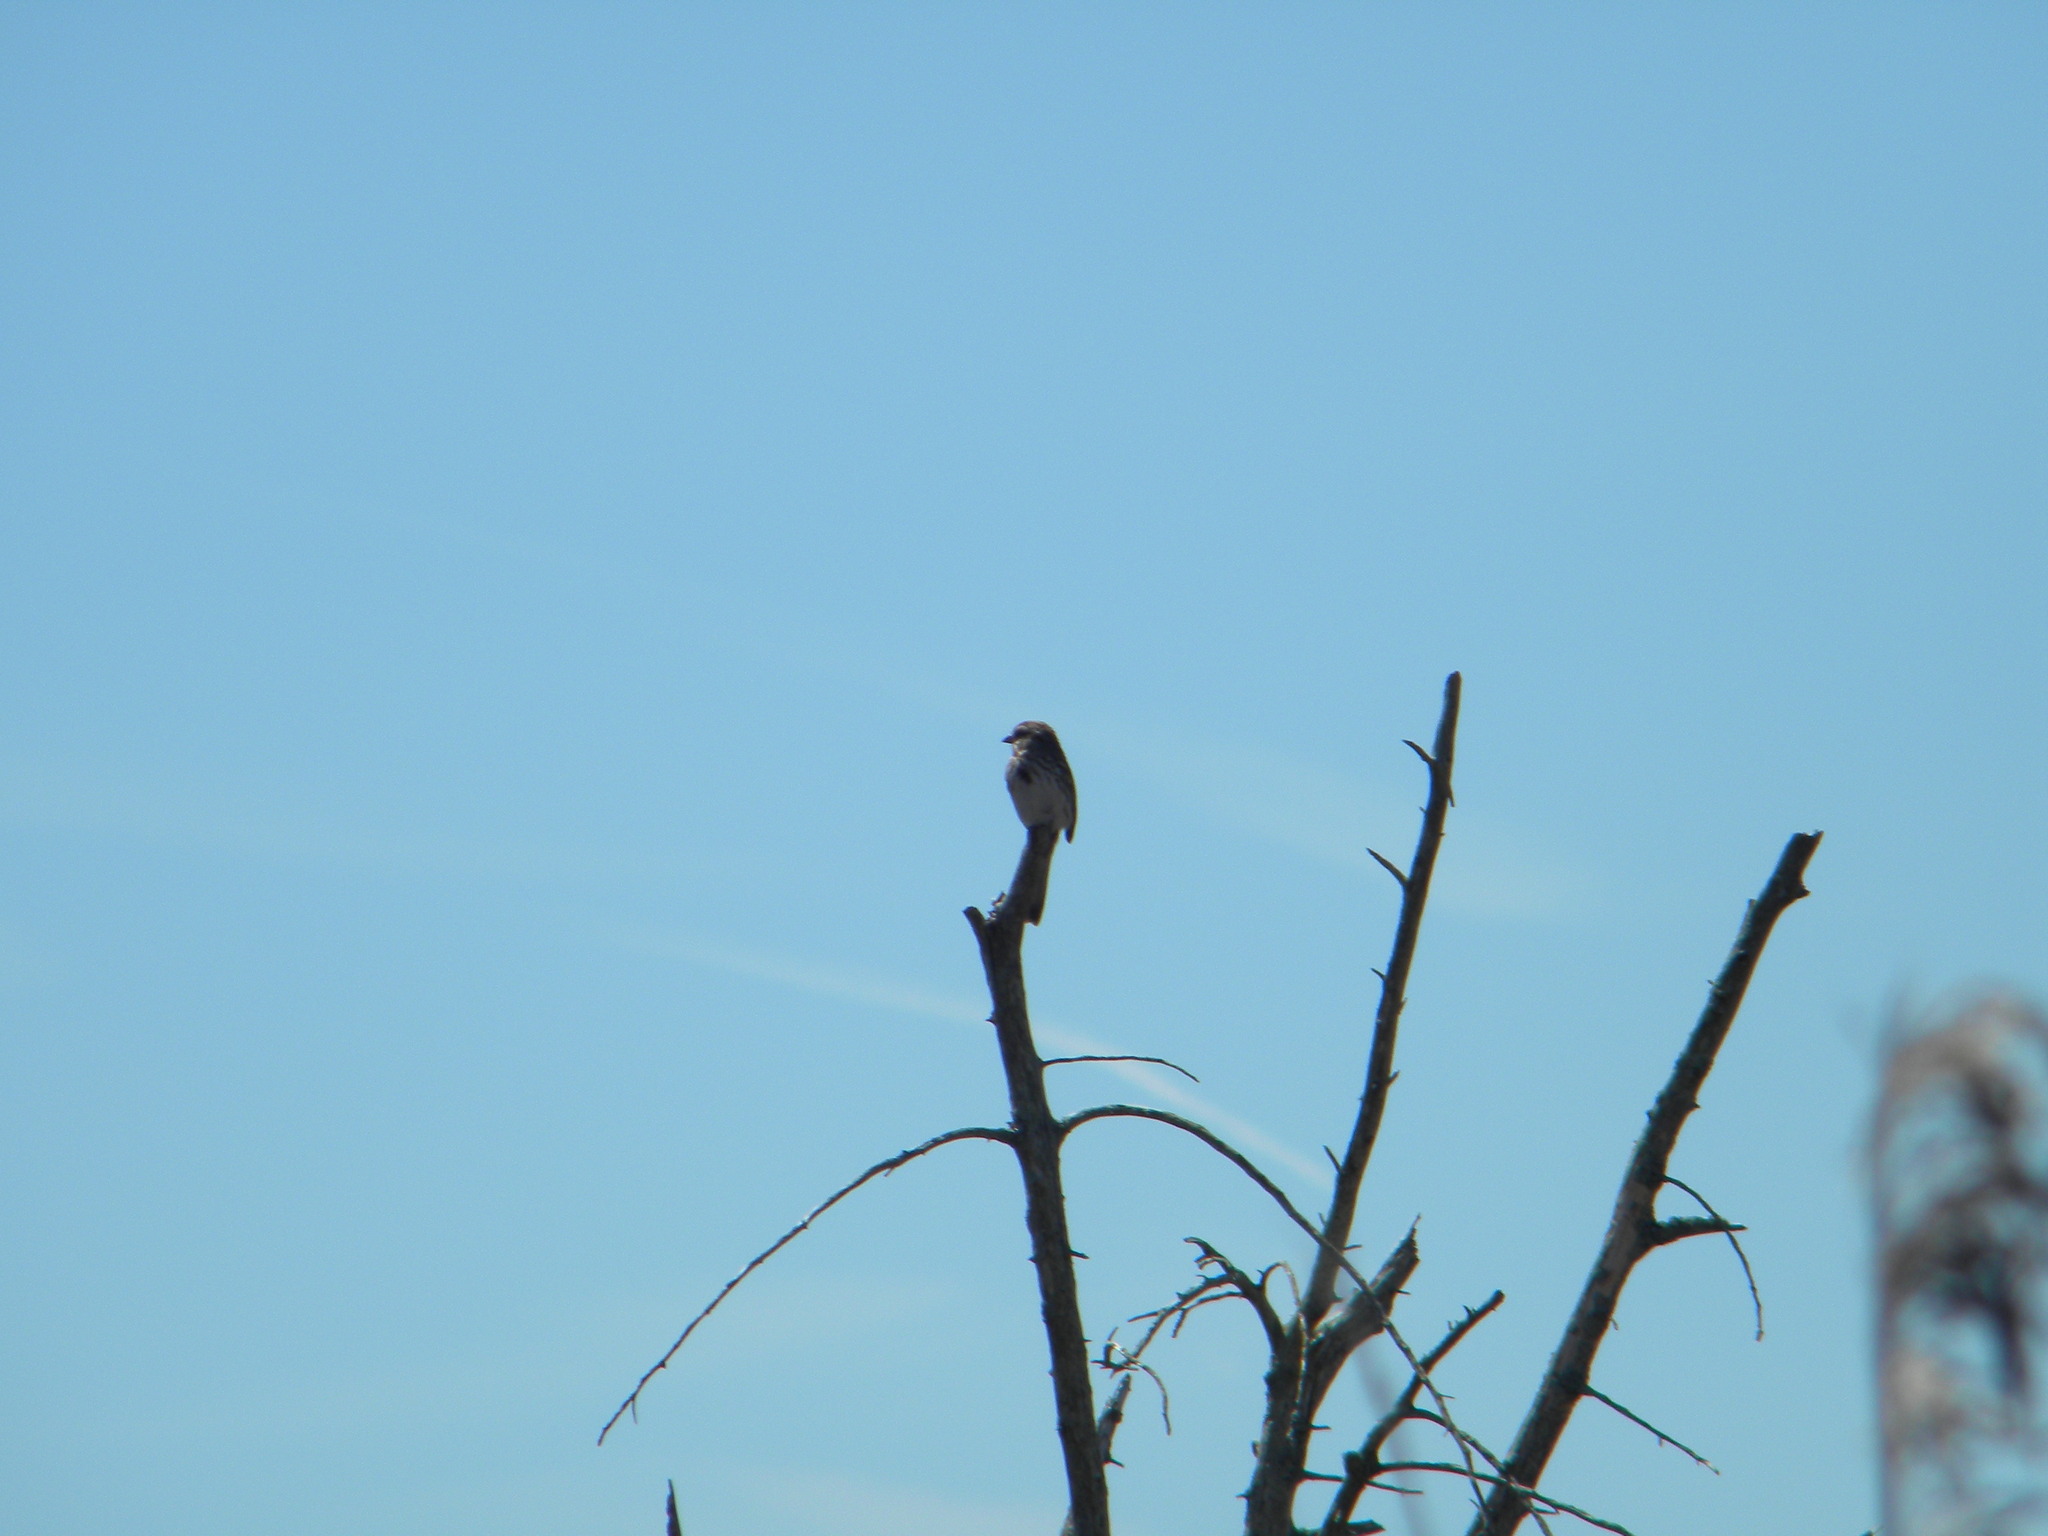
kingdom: Animalia
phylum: Chordata
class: Aves
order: Passeriformes
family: Passerellidae
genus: Melospiza
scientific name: Melospiza melodia
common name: Song sparrow
